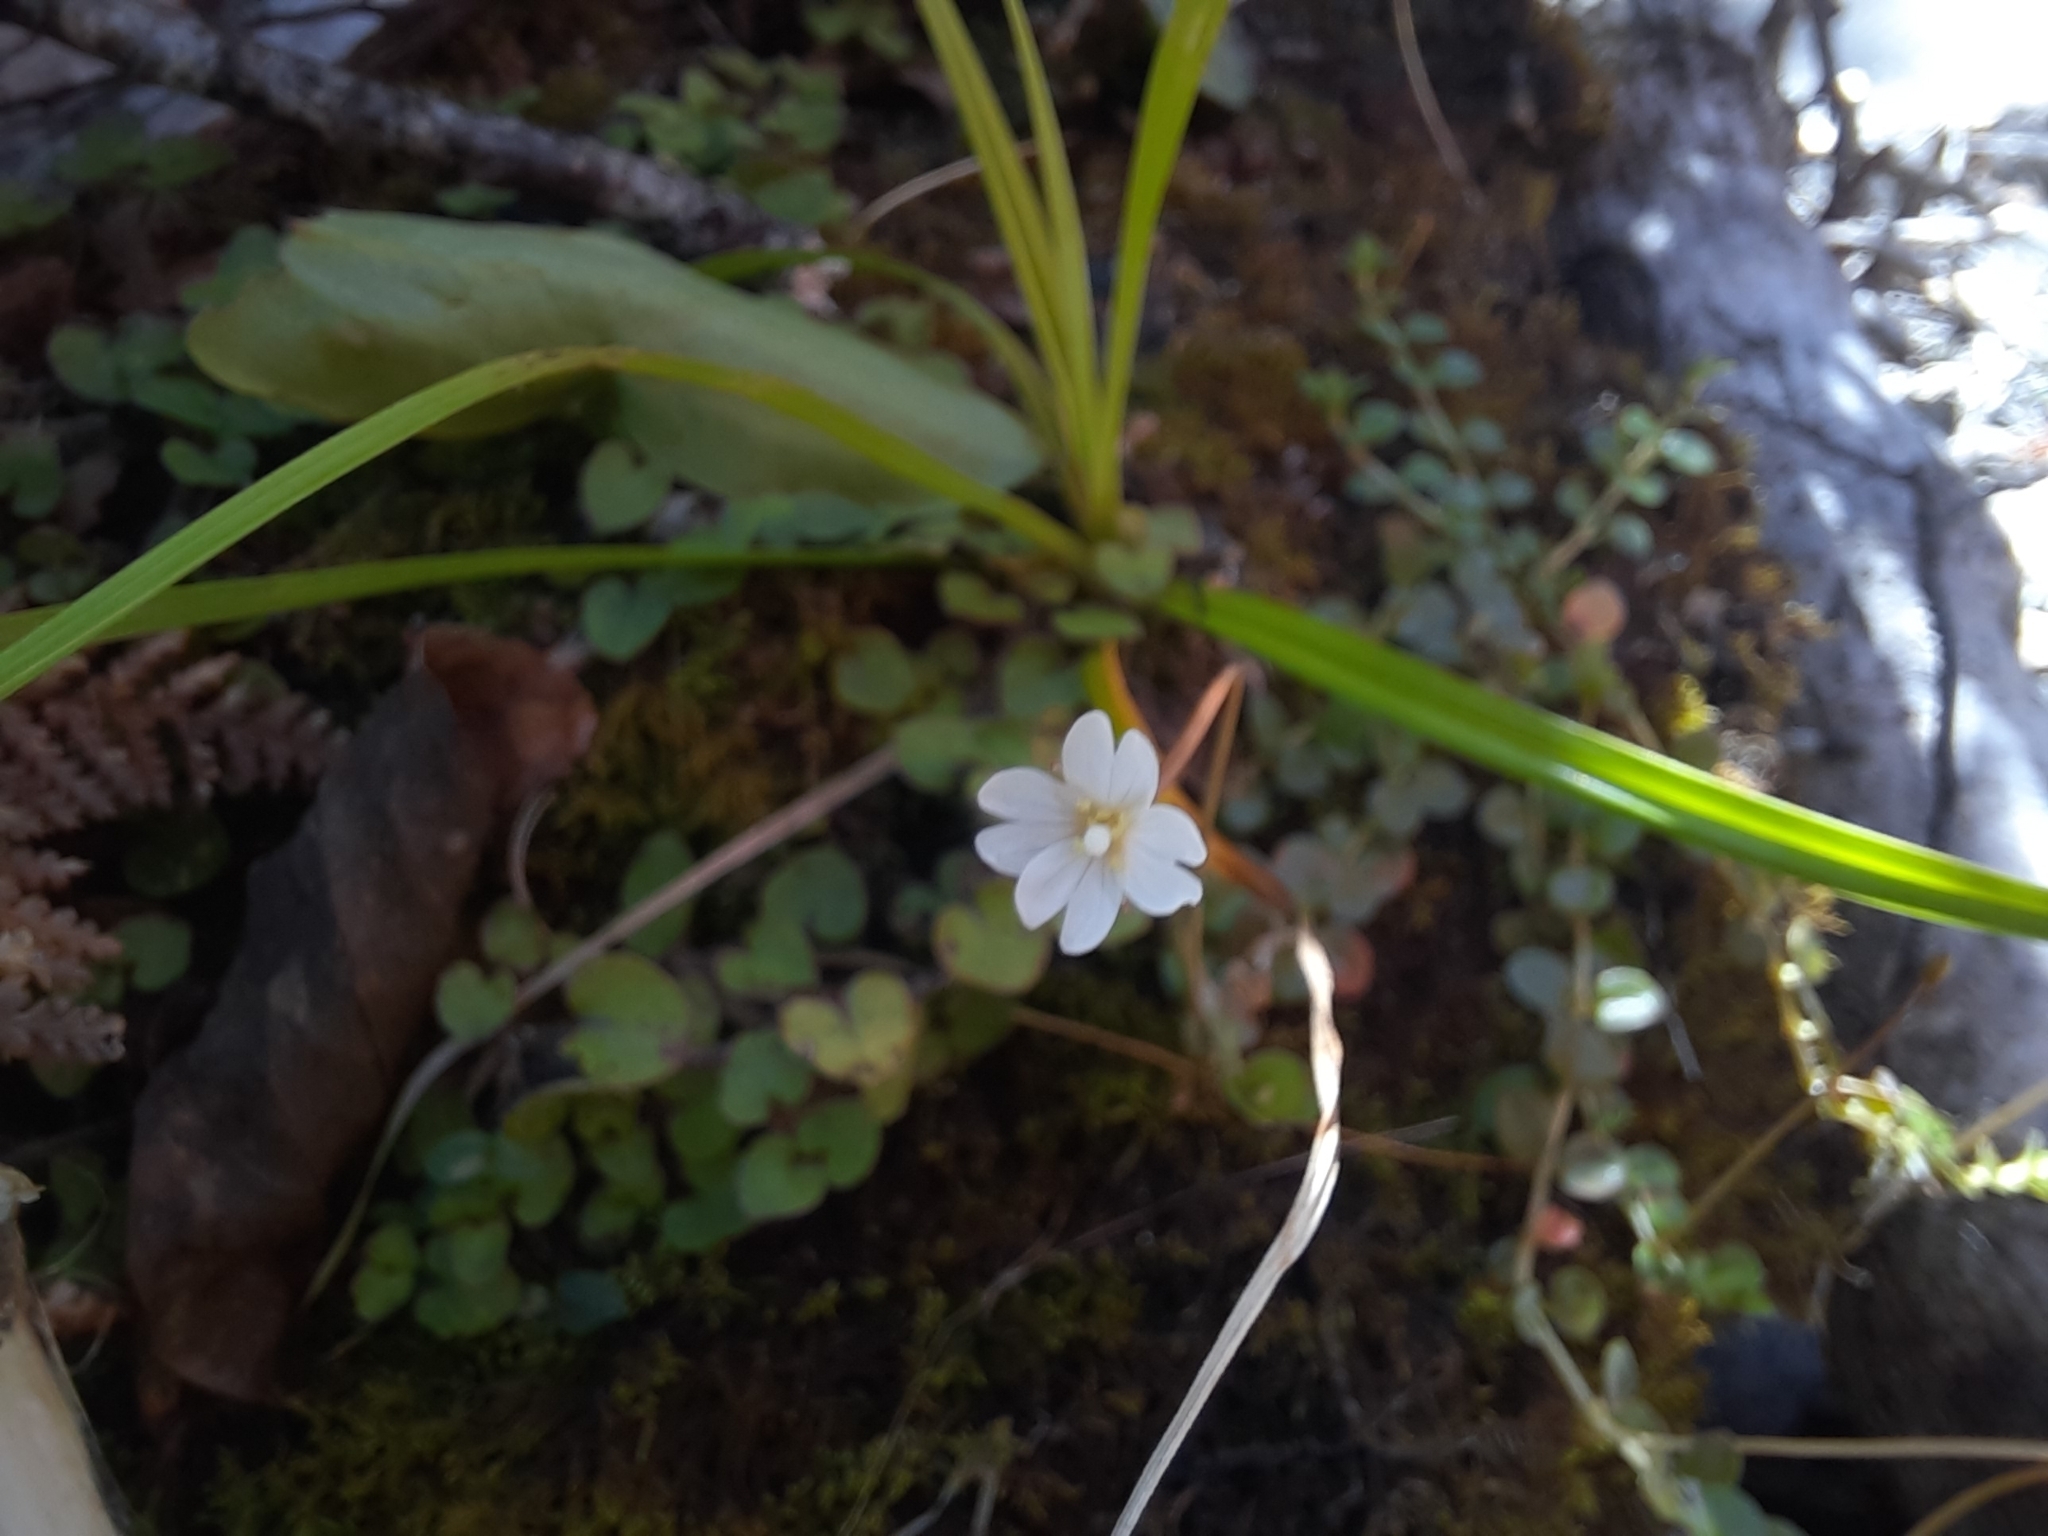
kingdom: Plantae
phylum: Tracheophyta
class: Magnoliopsida
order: Myrtales
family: Onagraceae
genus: Epilobium
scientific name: Epilobium brunnescens
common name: New zealand willowherb
